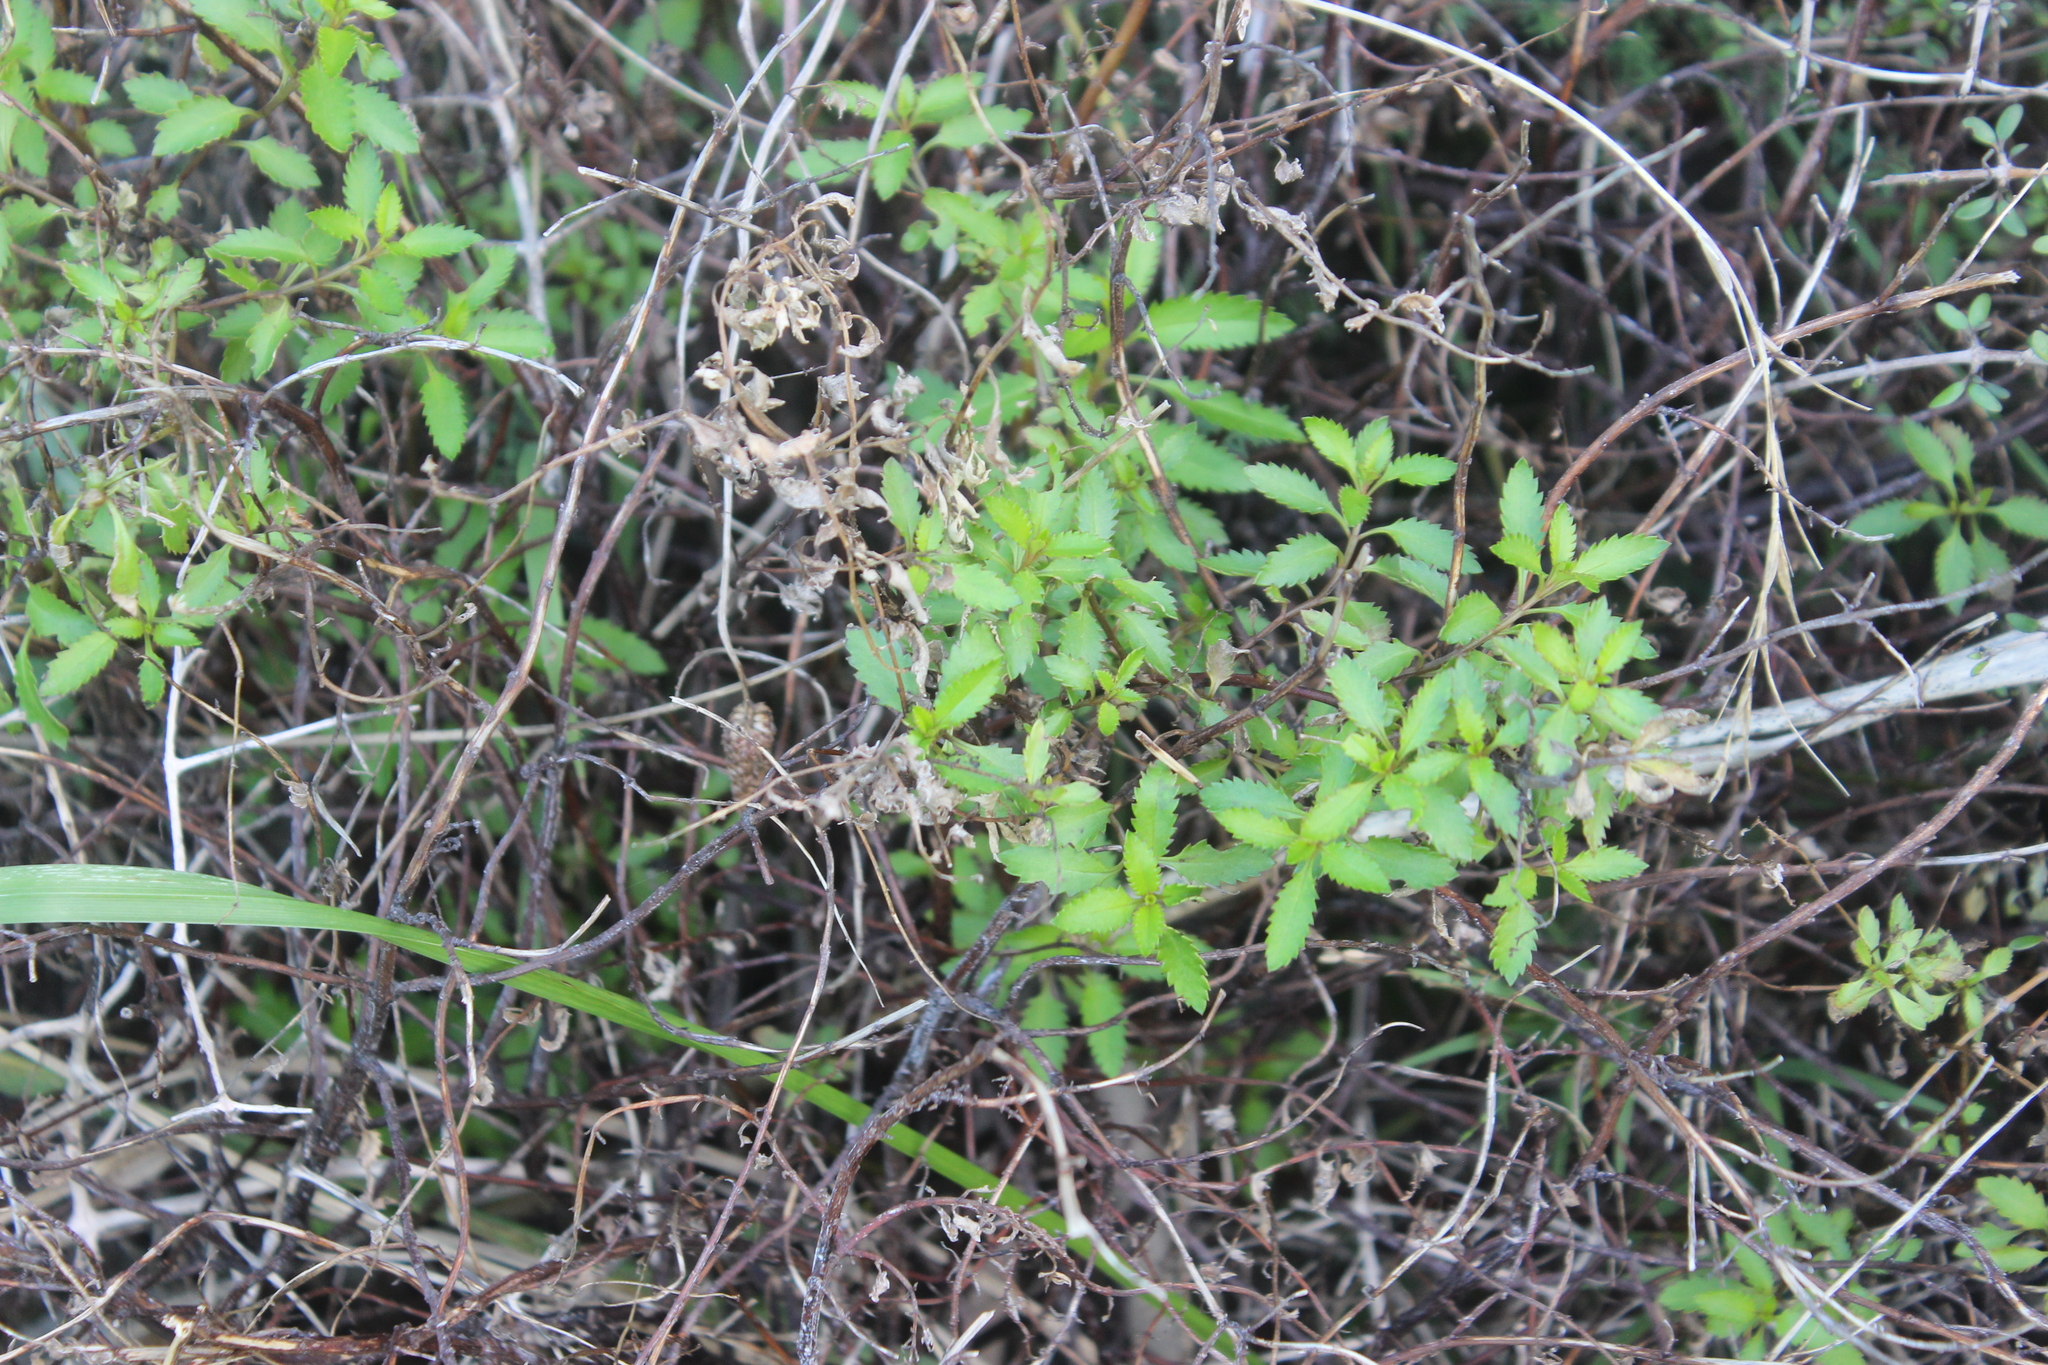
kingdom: Plantae
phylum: Tracheophyta
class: Magnoliopsida
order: Saxifragales
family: Haloragaceae
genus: Haloragis
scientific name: Haloragis erecta
